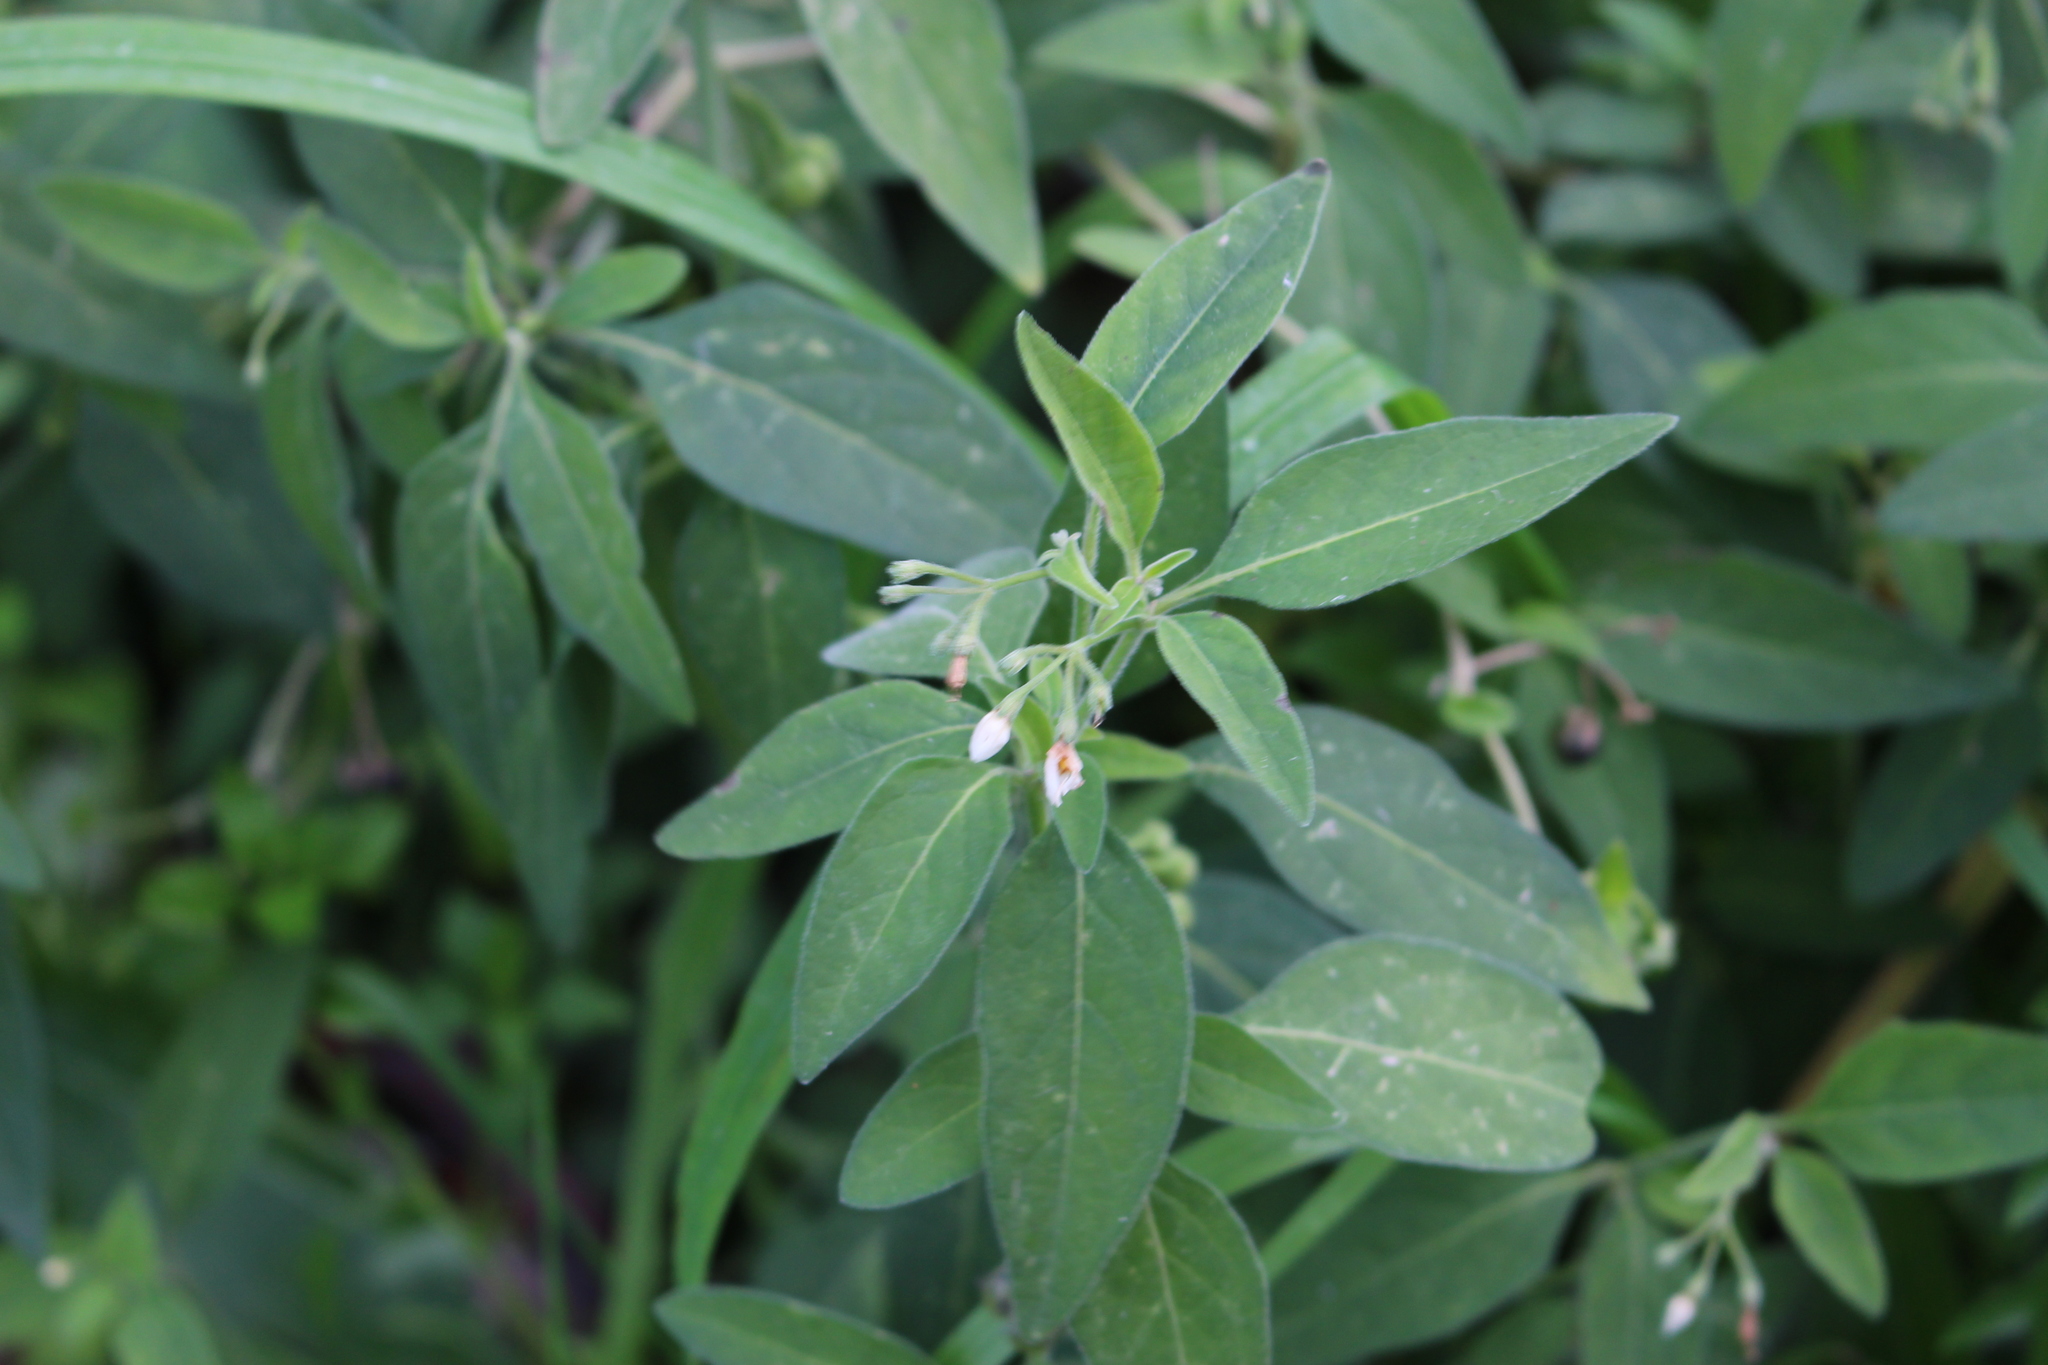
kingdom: Plantae
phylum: Tracheophyta
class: Magnoliopsida
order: Solanales
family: Solanaceae
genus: Solanum
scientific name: Solanum chenopodioides
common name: Tall nightshade
